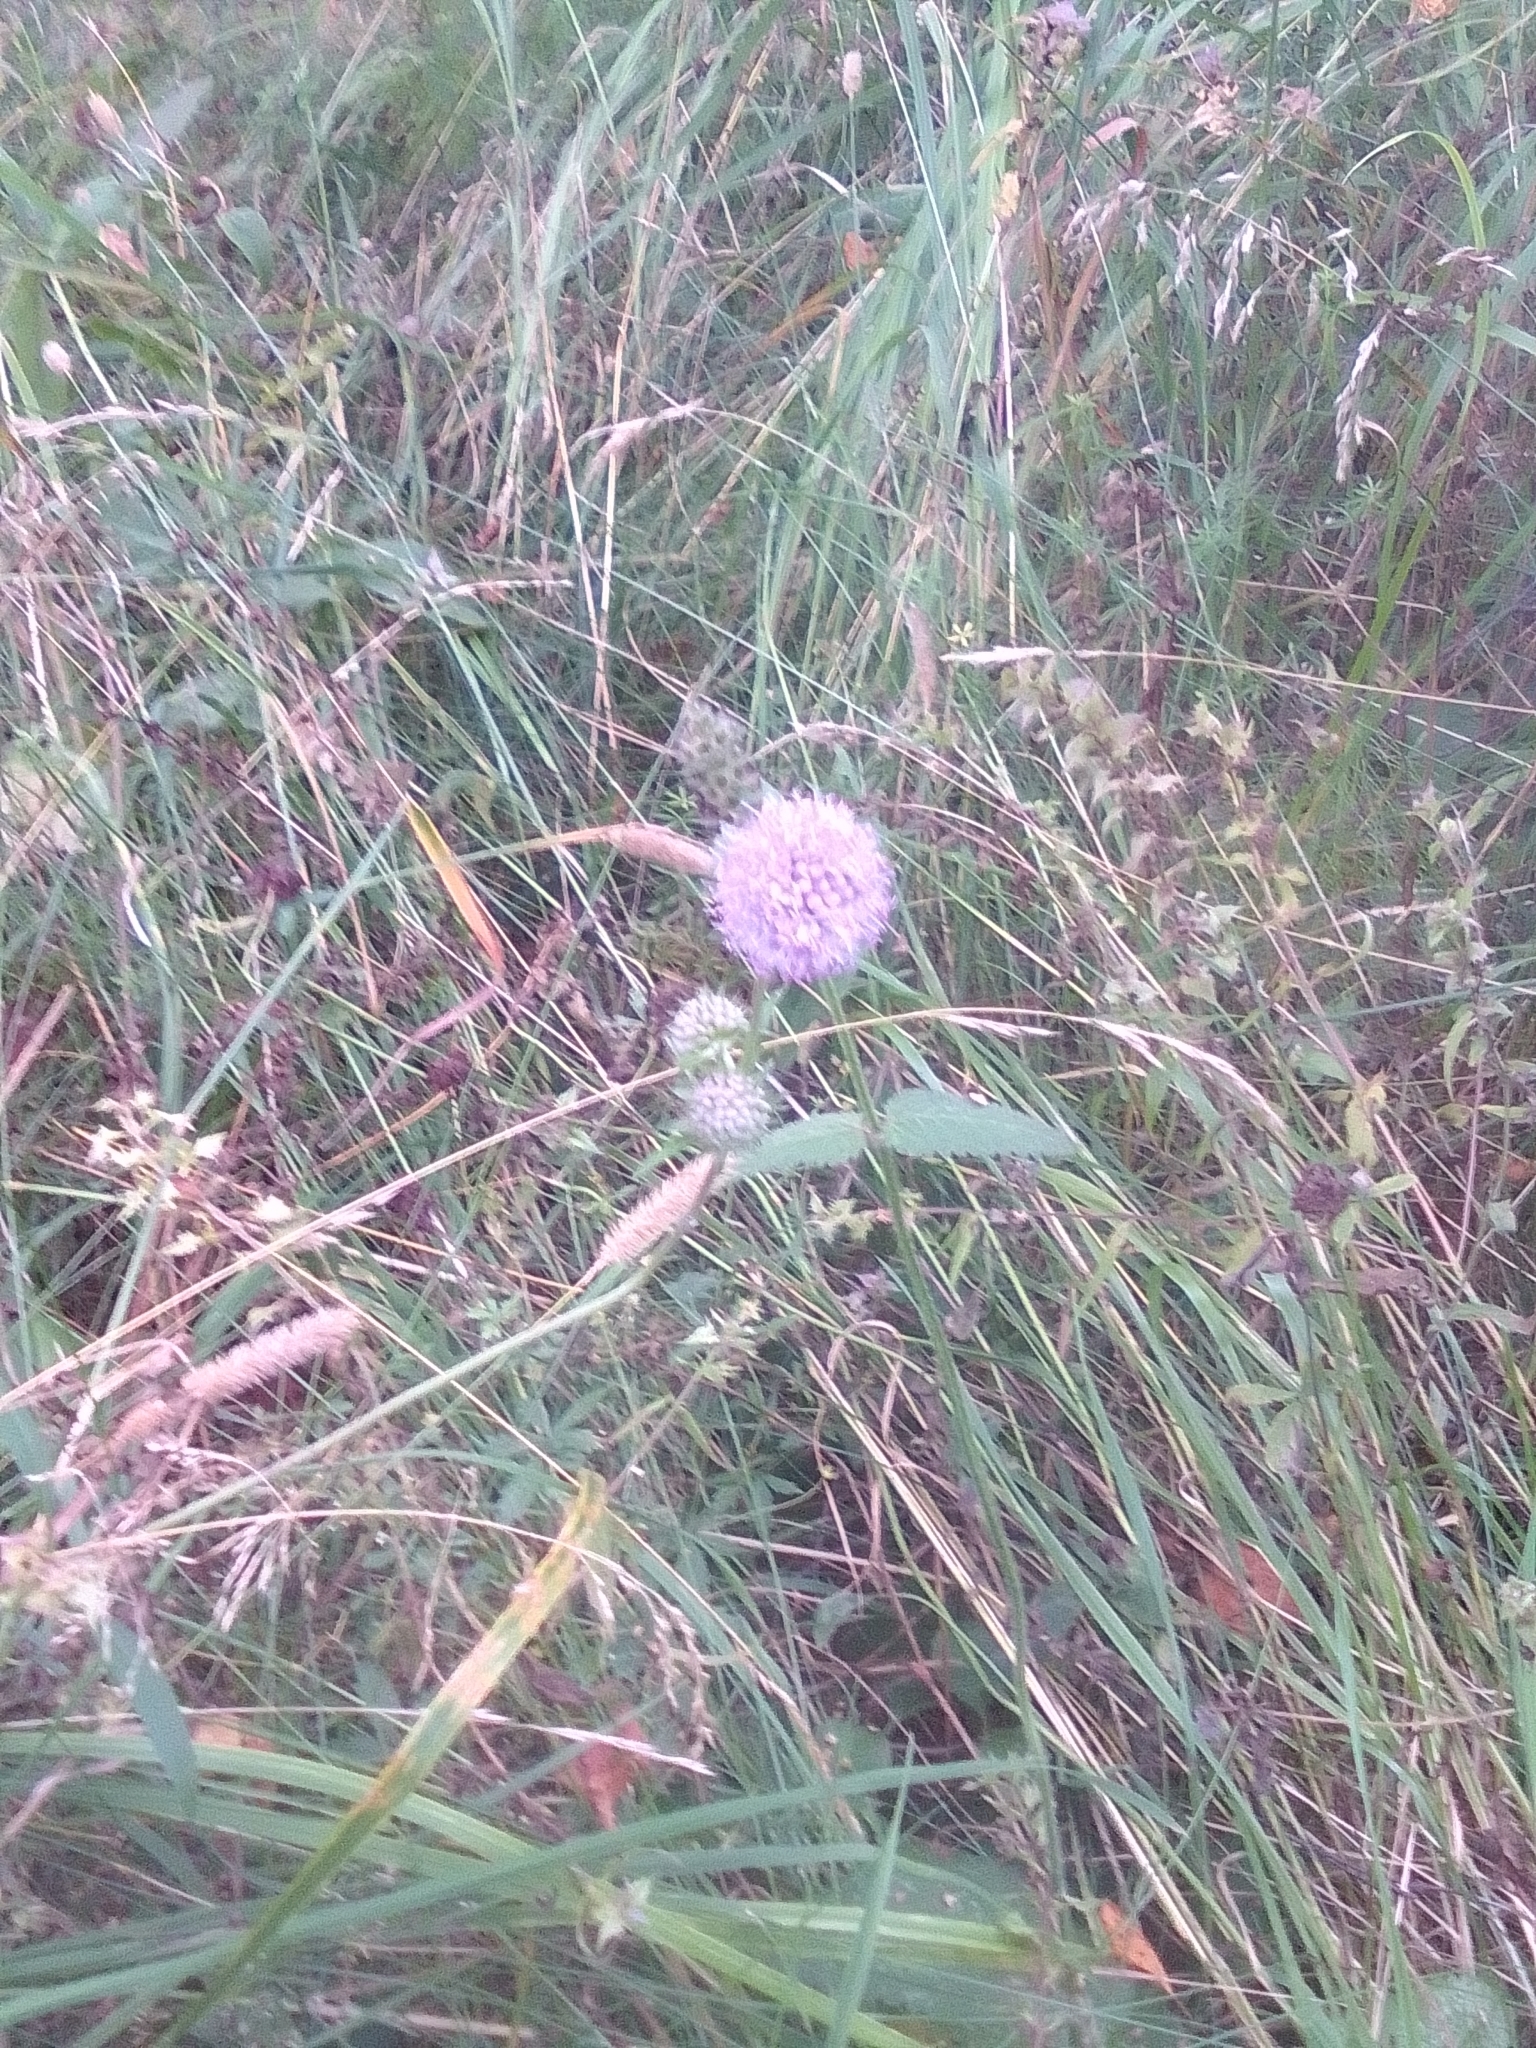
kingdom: Plantae
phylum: Tracheophyta
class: Magnoliopsida
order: Dipsacales
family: Caprifoliaceae
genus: Succisa
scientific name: Succisa pratensis
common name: Devil's-bit
